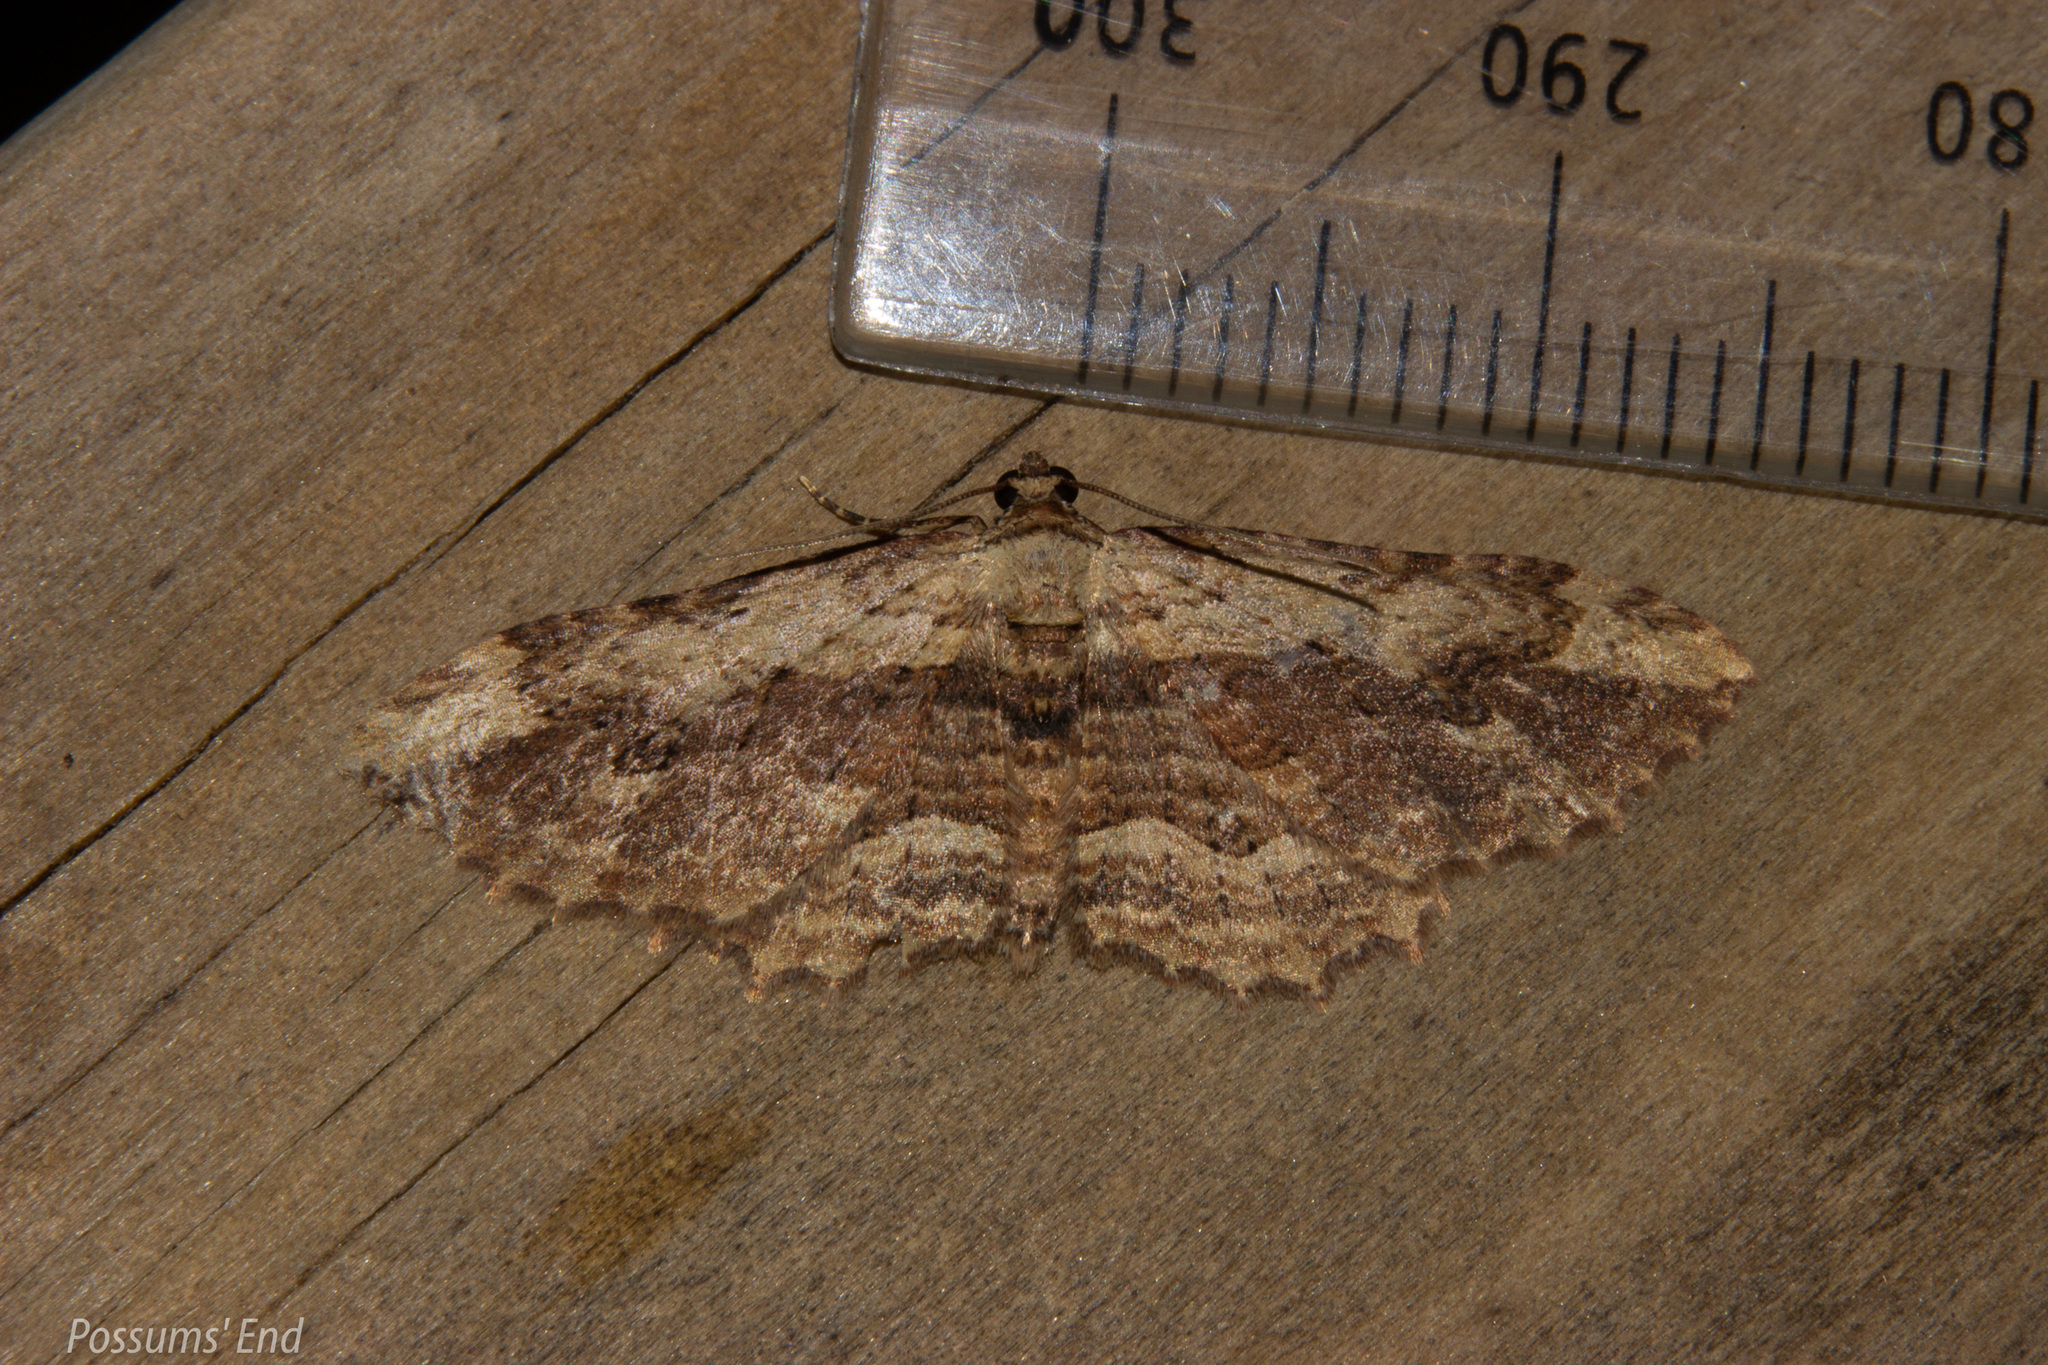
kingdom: Animalia
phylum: Arthropoda
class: Insecta
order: Lepidoptera
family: Geometridae
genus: Austrocidaria
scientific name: Austrocidaria bipartita
